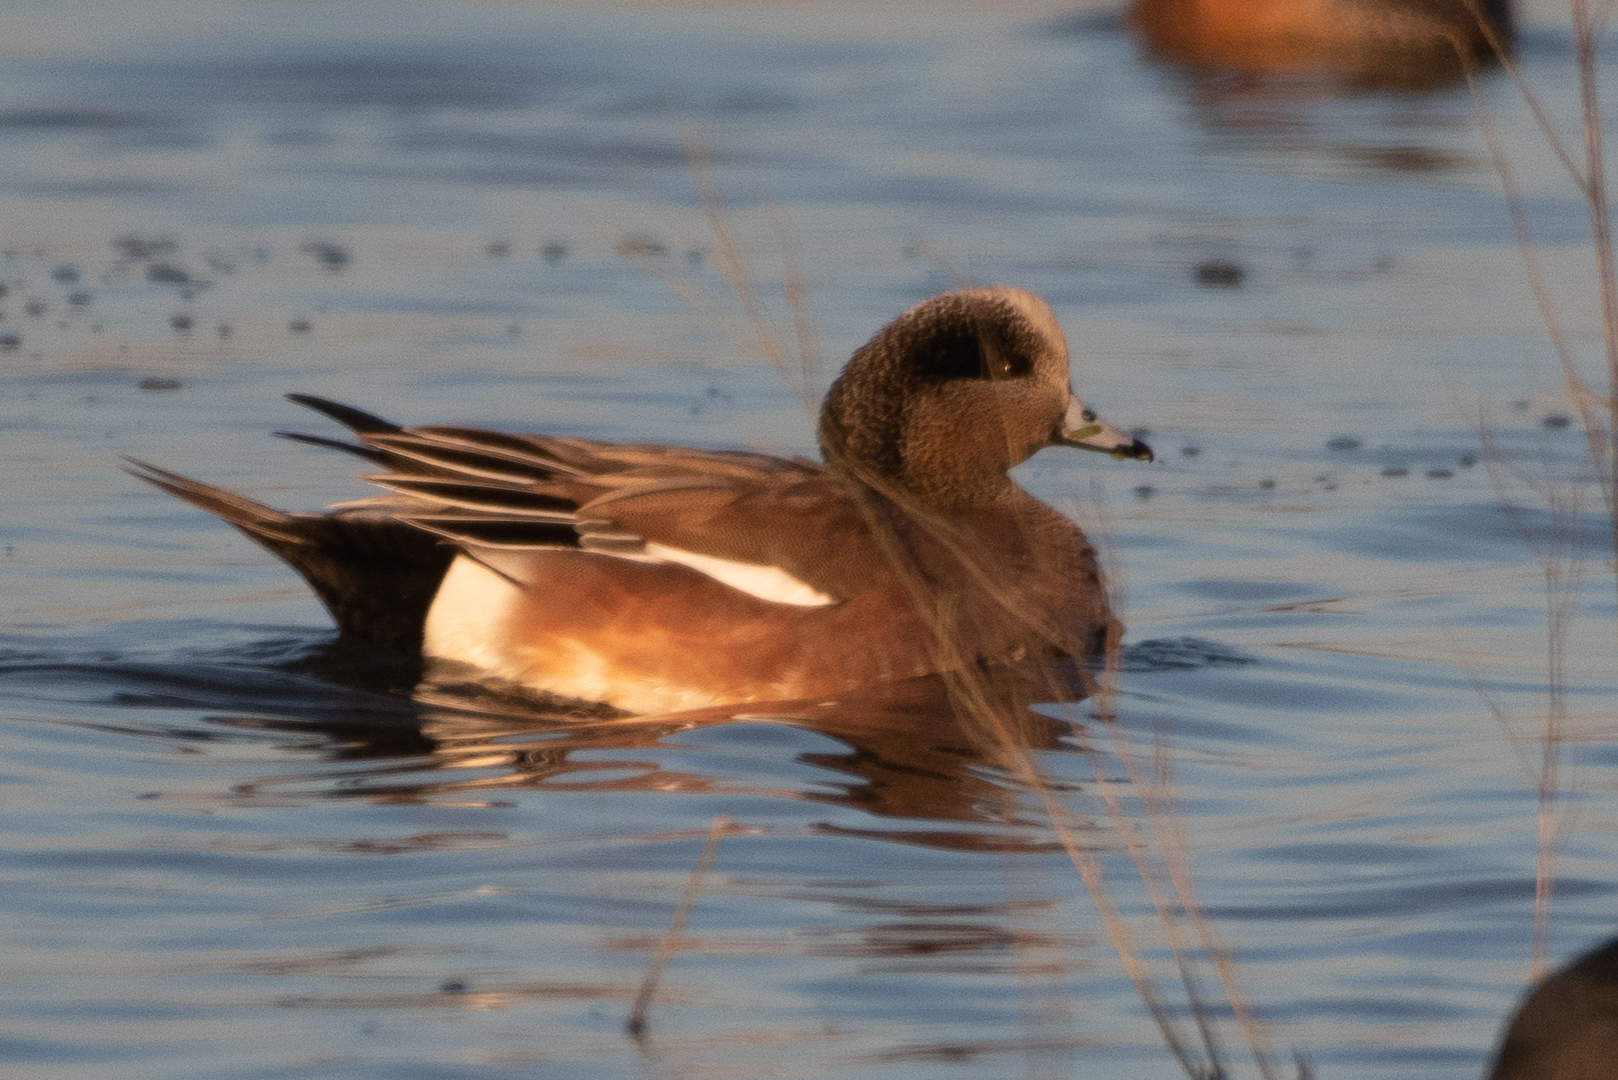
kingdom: Animalia
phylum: Chordata
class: Aves
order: Anseriformes
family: Anatidae
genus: Mareca
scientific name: Mareca americana
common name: American wigeon
